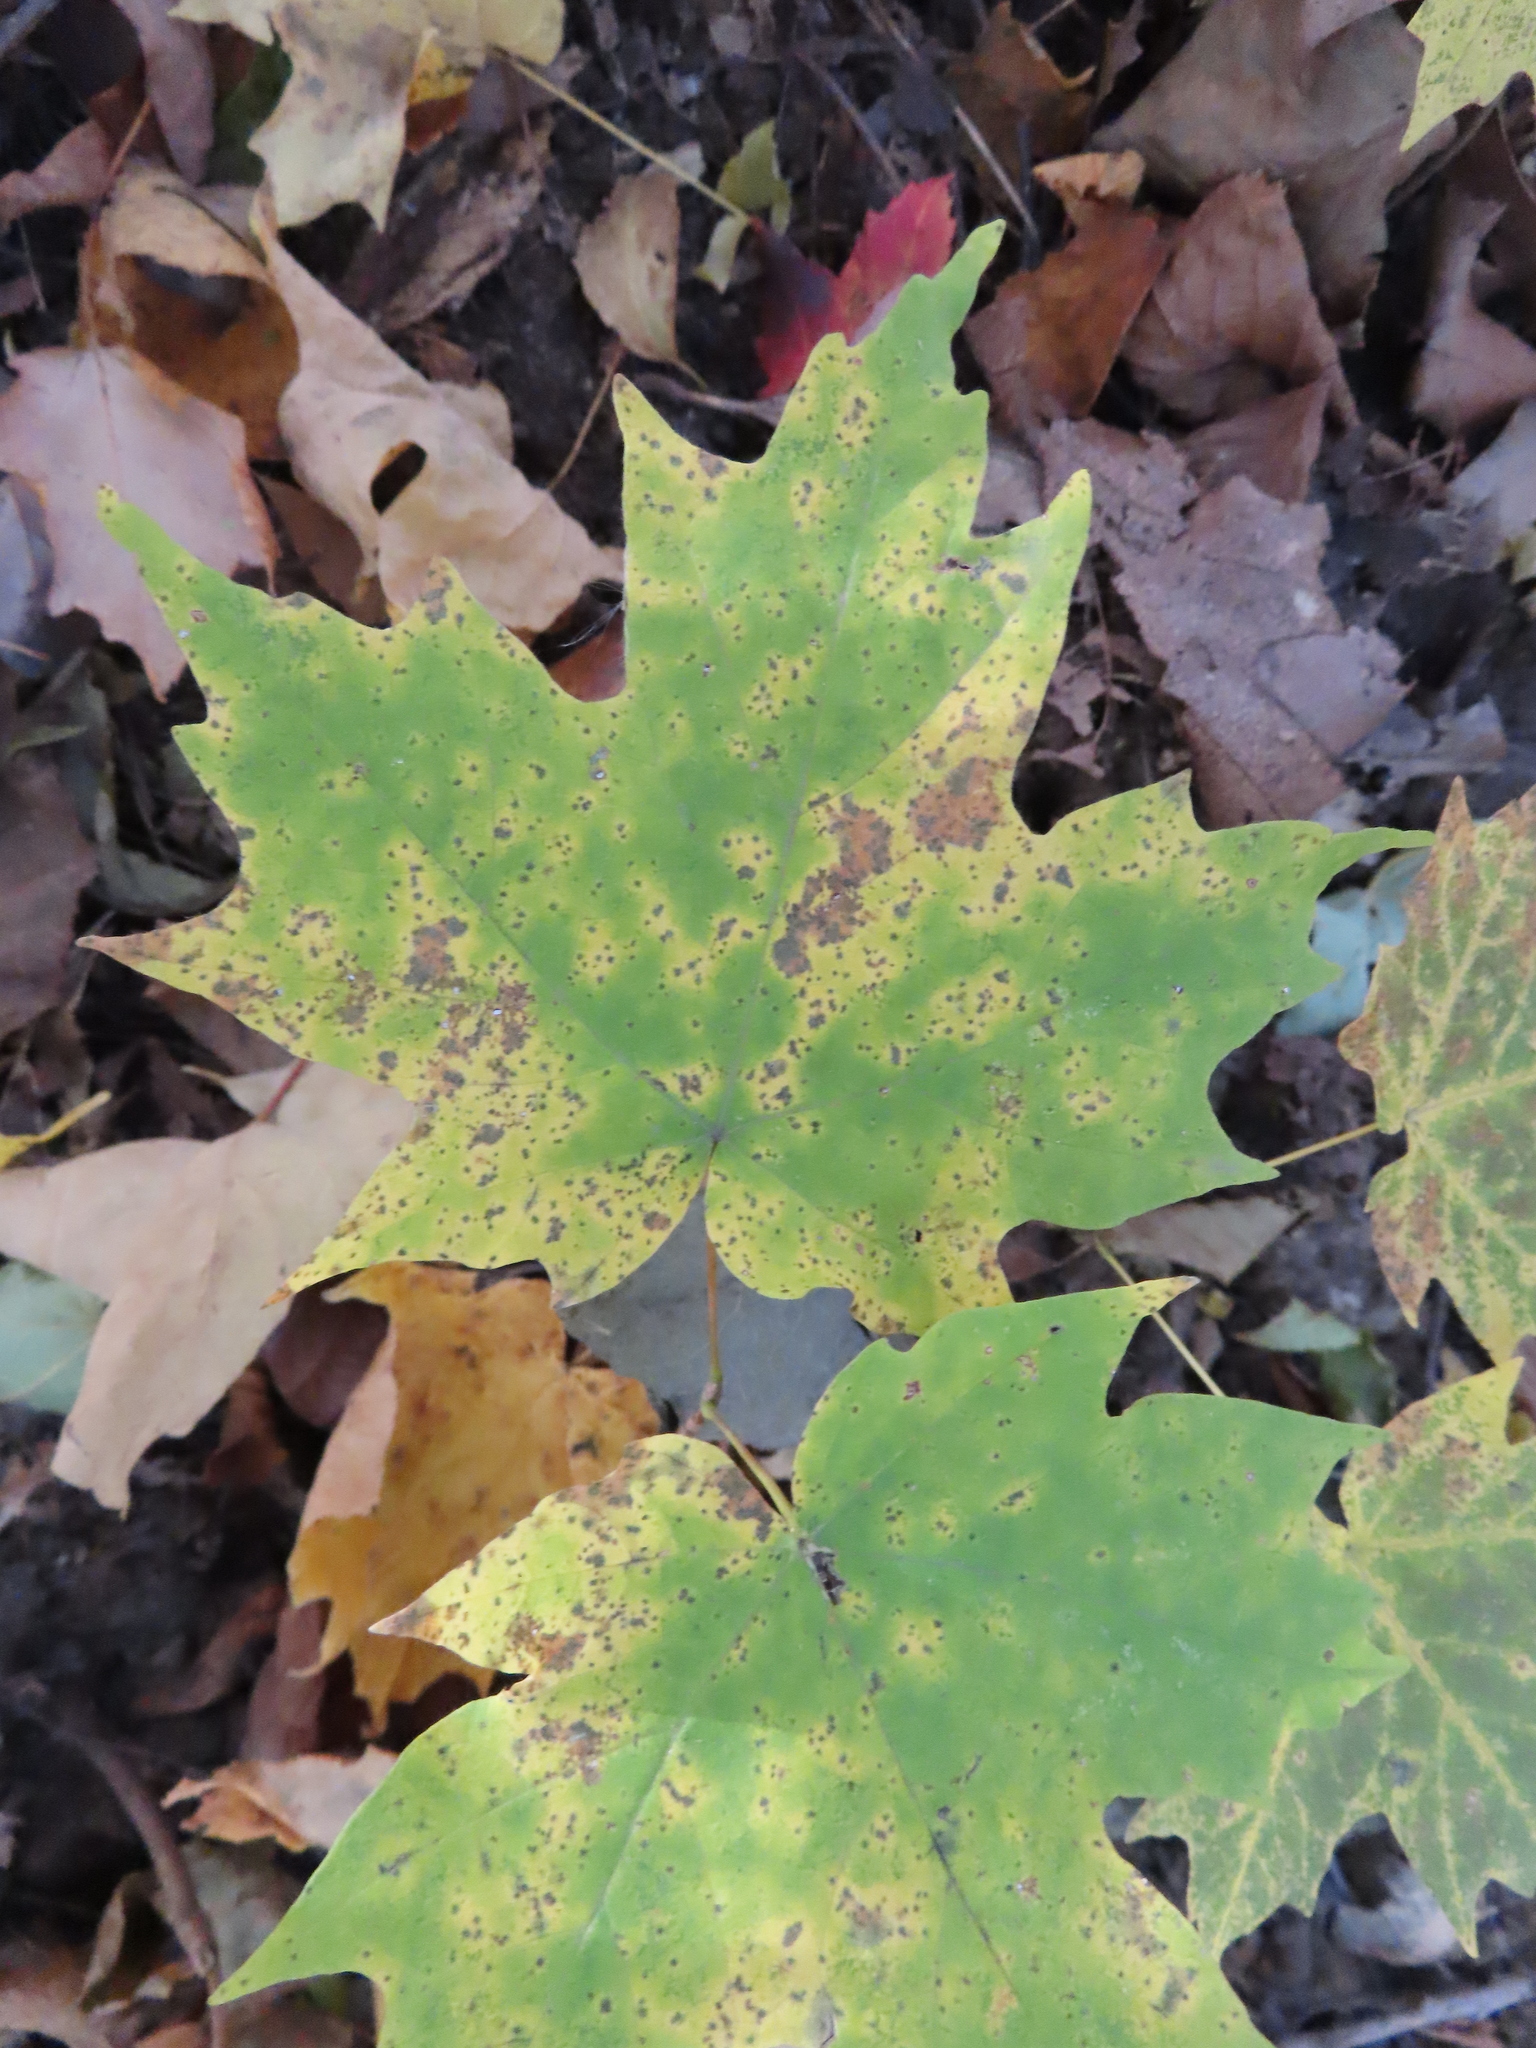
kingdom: Plantae
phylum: Tracheophyta
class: Magnoliopsida
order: Sapindales
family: Sapindaceae
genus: Acer
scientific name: Acer saccharum
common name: Sugar maple
